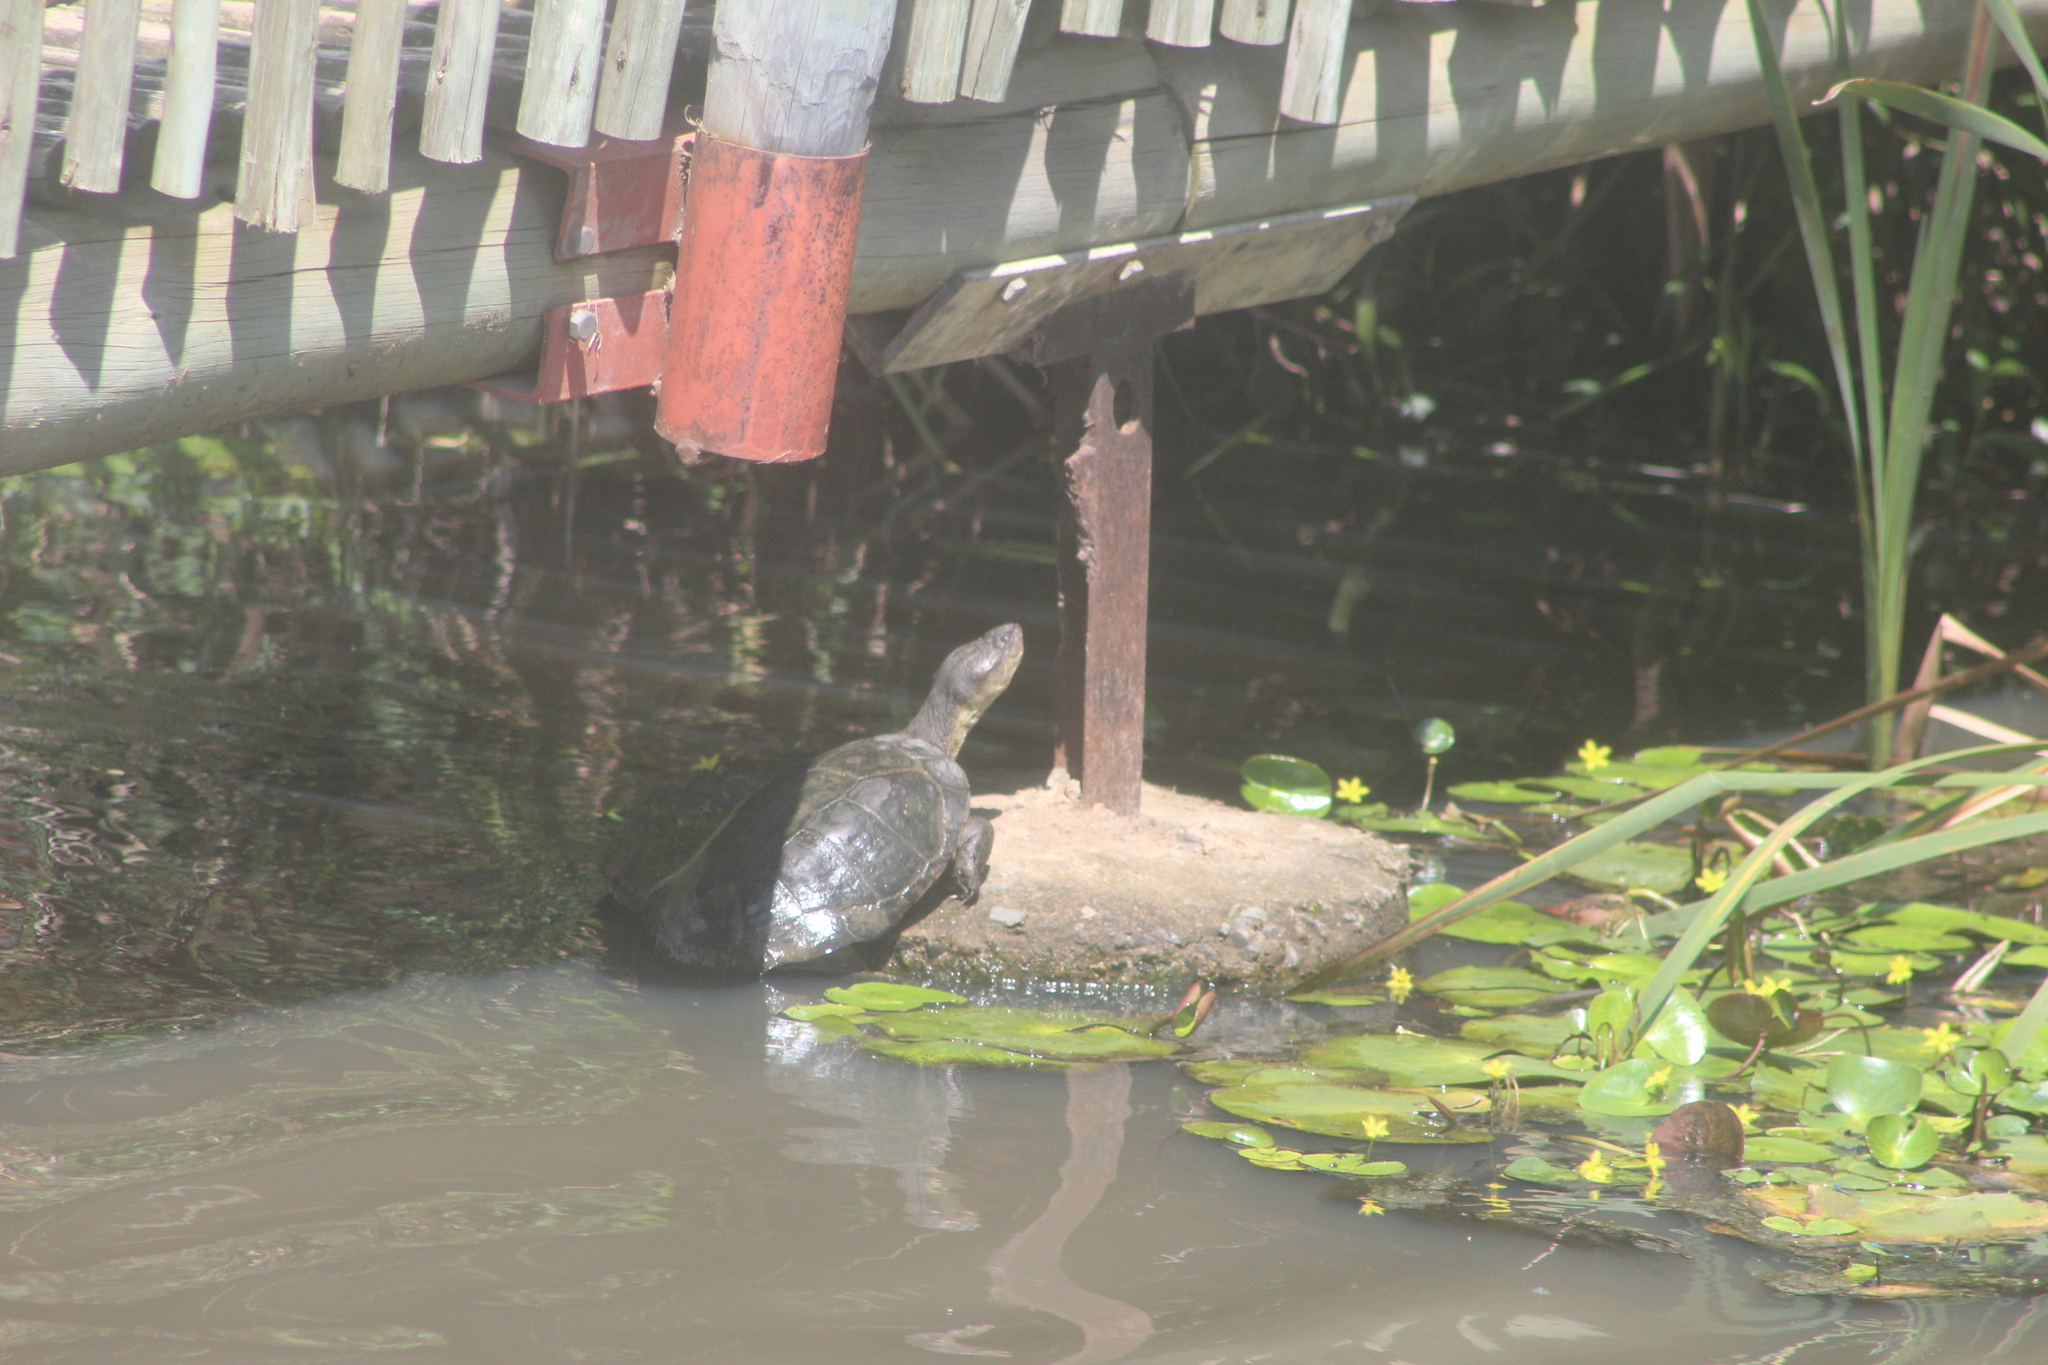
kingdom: Animalia
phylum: Chordata
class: Testudines
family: Pelomedusidae
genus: Pelomedusa
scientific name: Pelomedusa galeata
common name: South african helmeted terrapin
